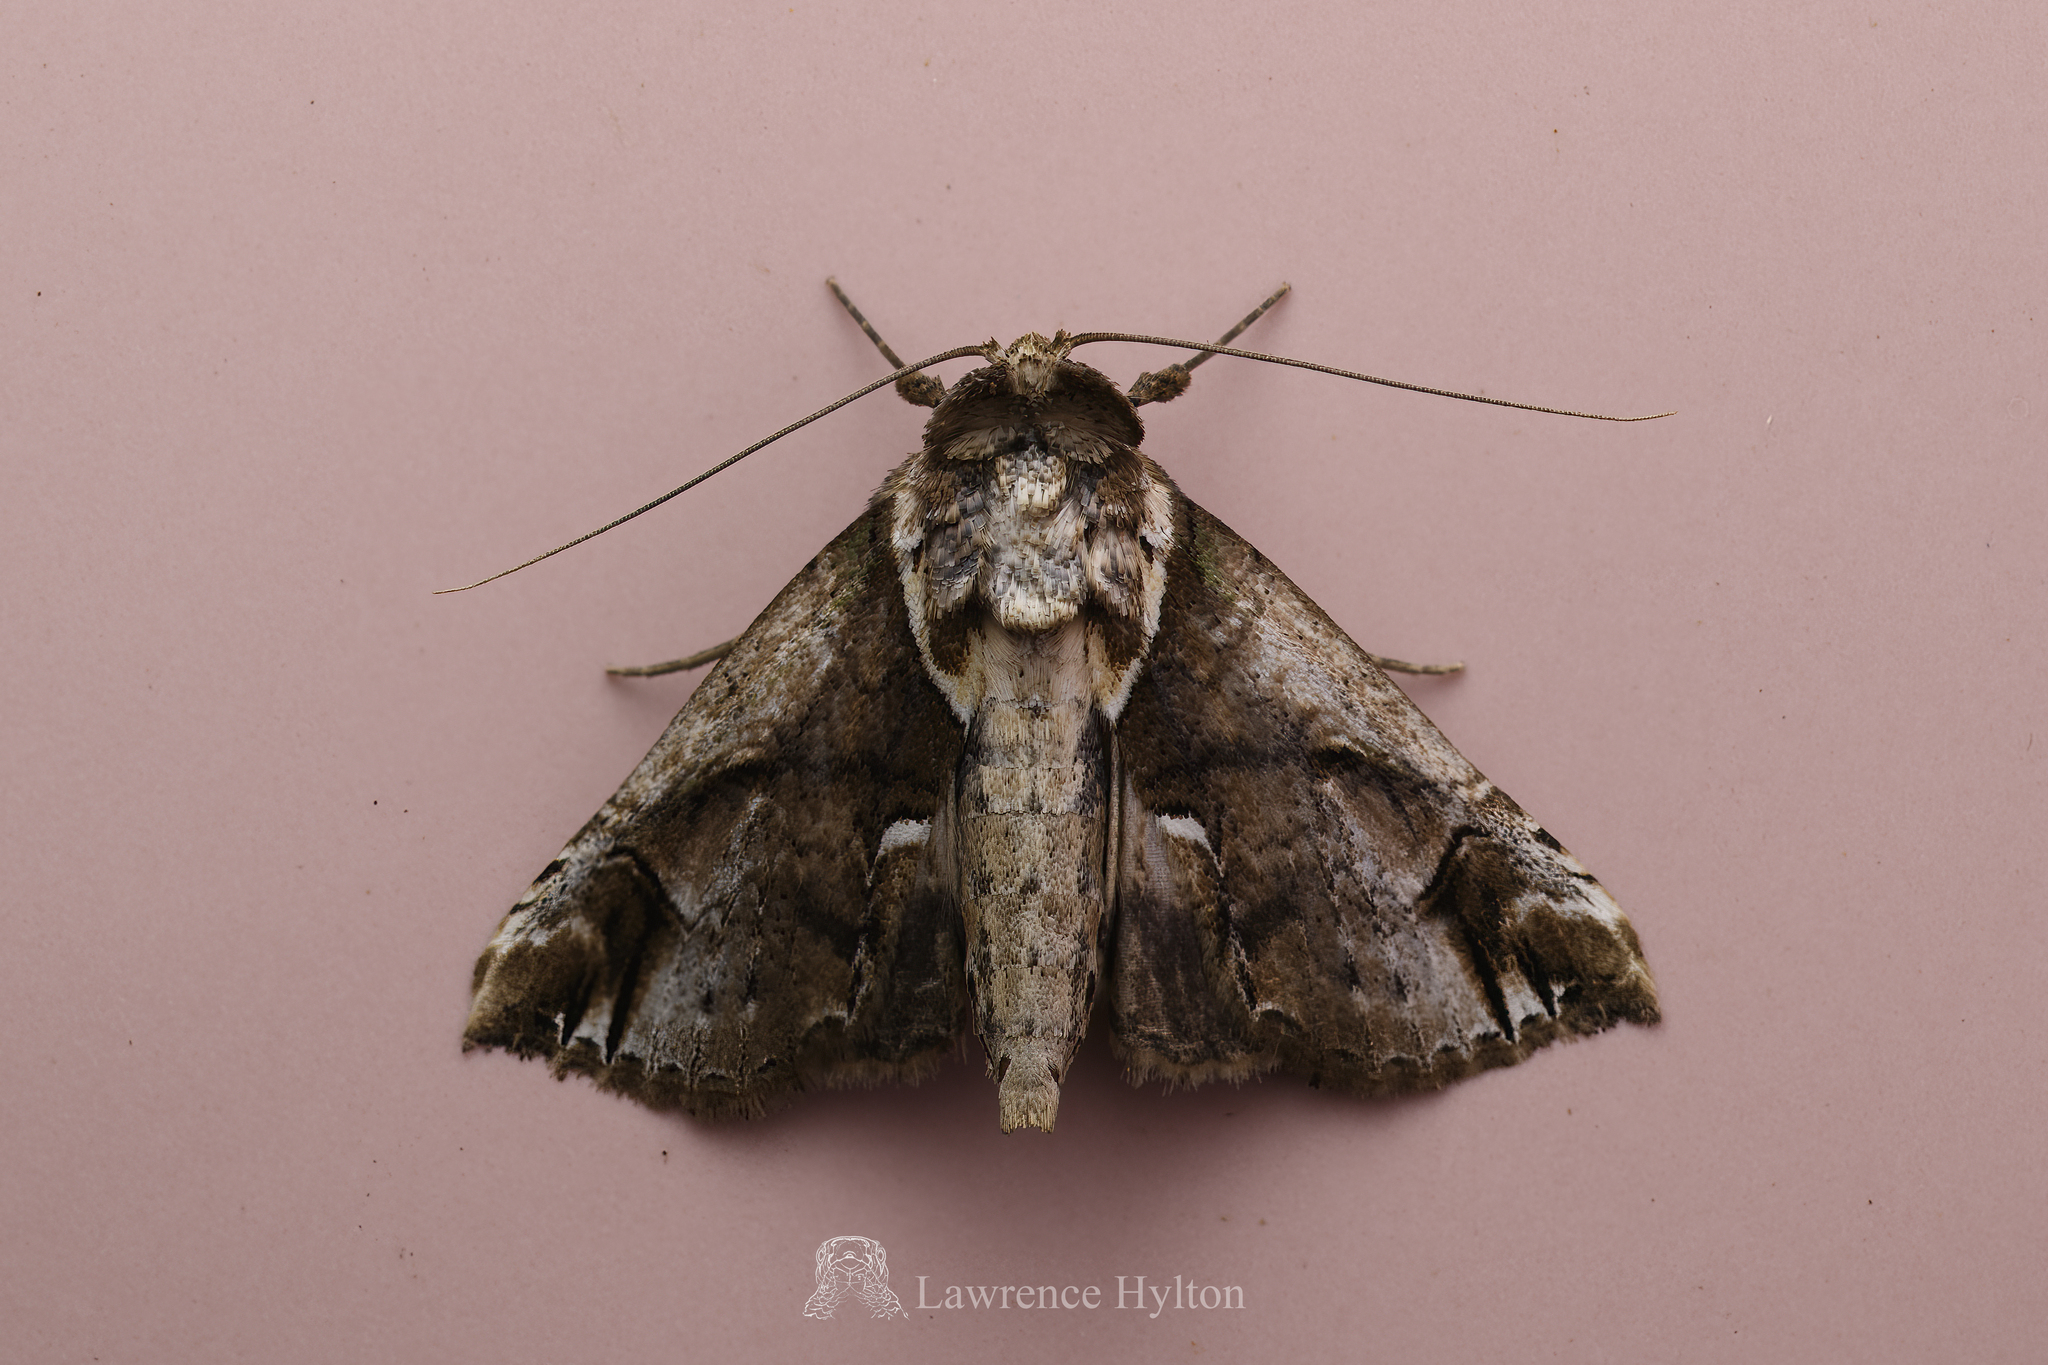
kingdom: Animalia
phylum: Arthropoda
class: Insecta
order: Lepidoptera
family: Nolidae
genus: Risoba
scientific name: Risoba basalis
